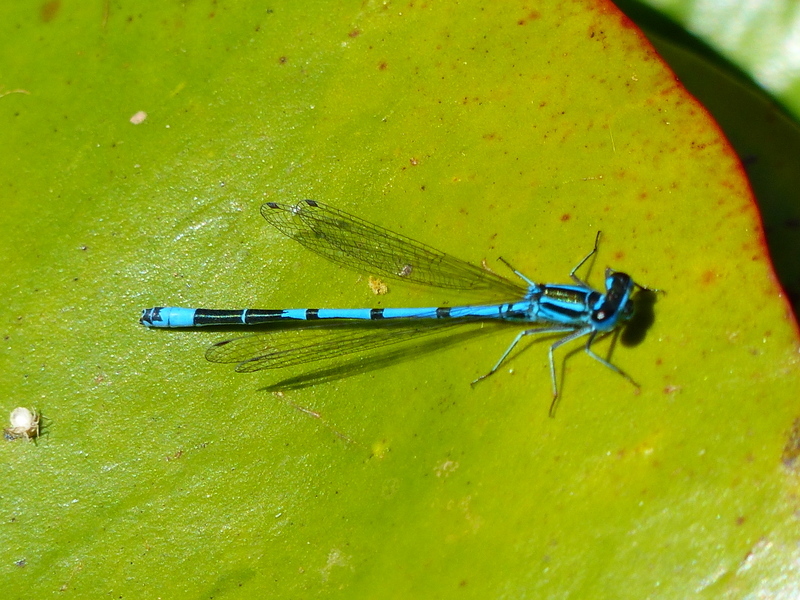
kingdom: Animalia
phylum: Arthropoda
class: Insecta
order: Odonata
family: Coenagrionidae
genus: Coenagrion
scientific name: Coenagrion puella
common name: Azure damselfly
